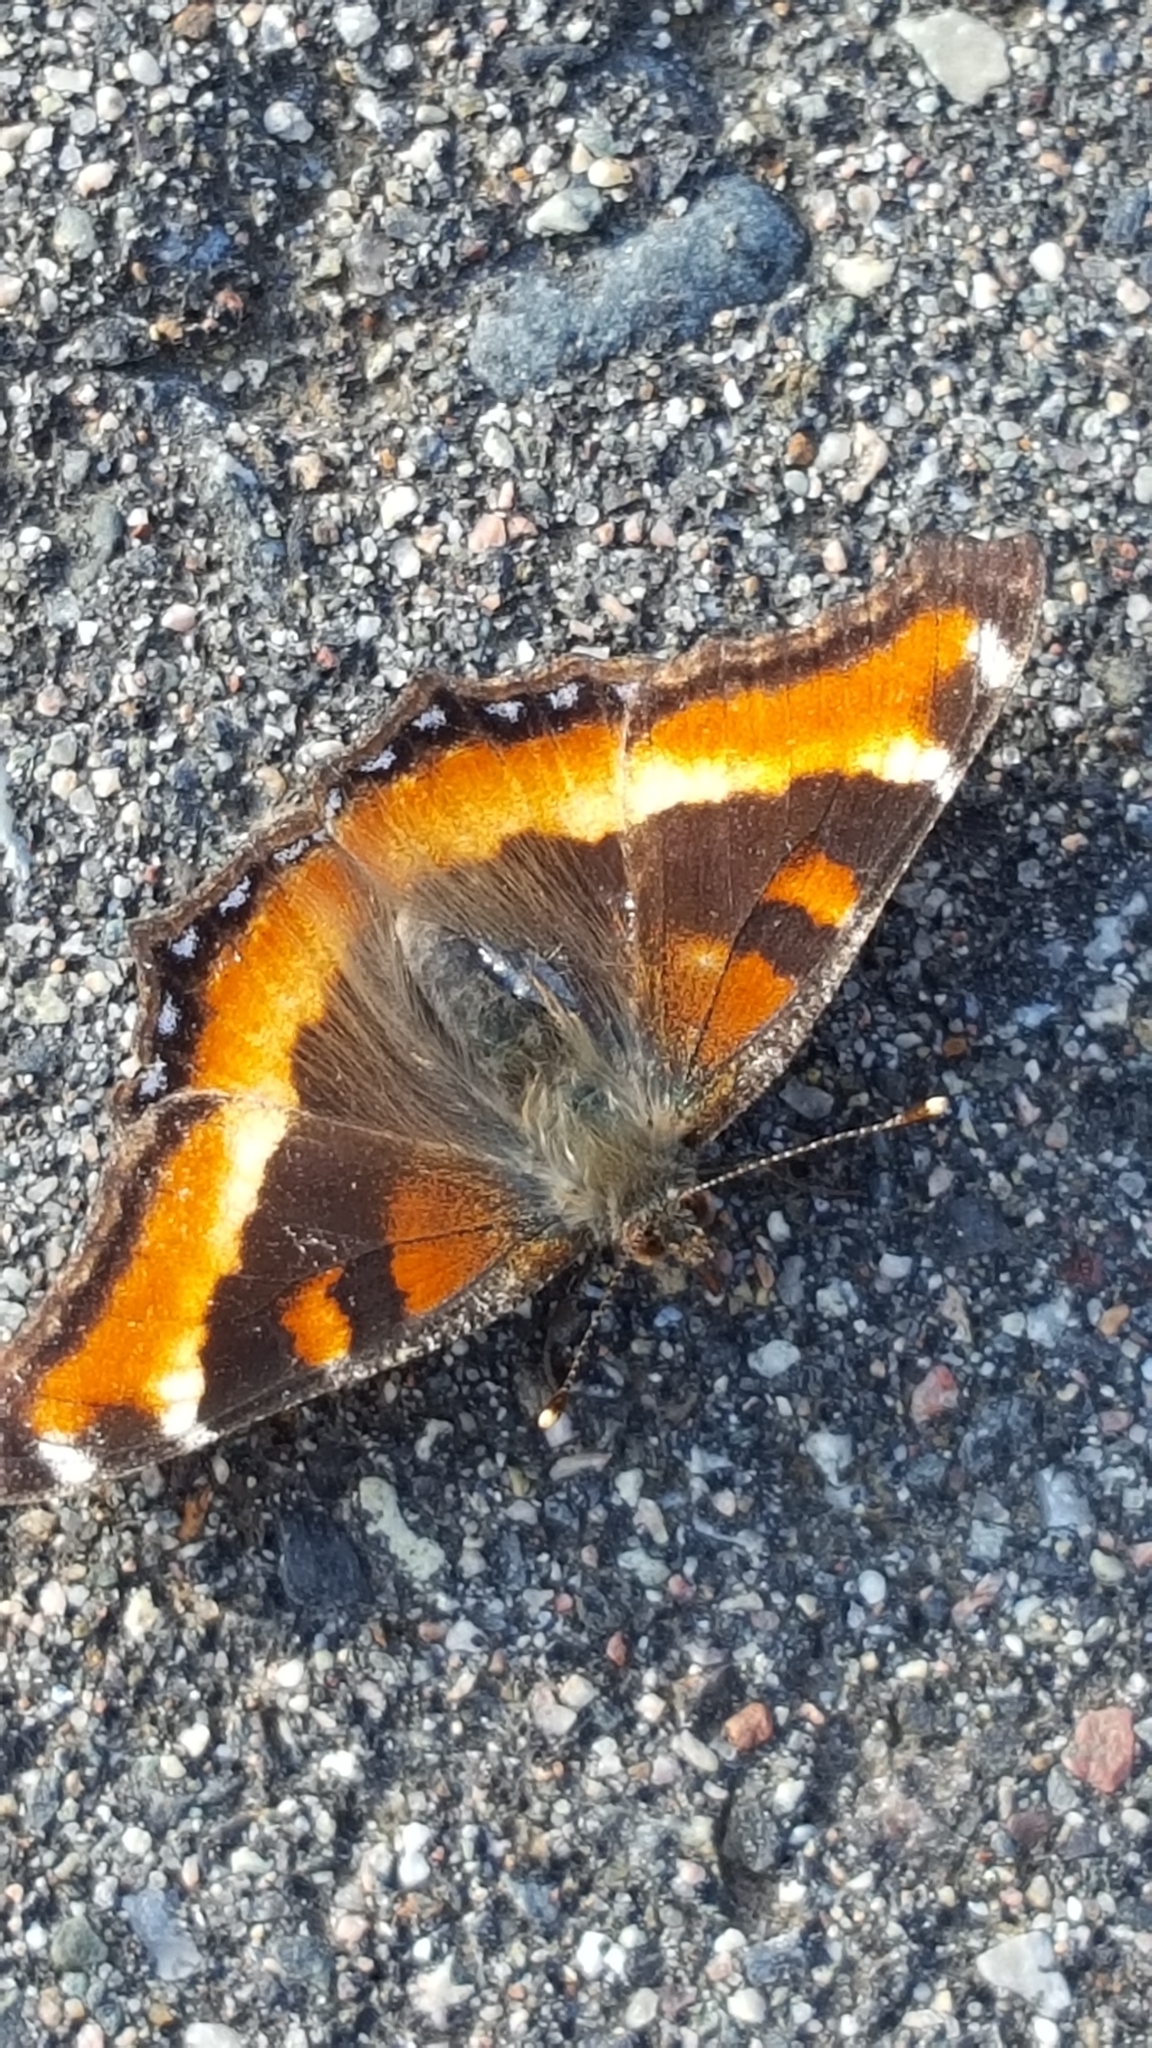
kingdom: Animalia
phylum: Arthropoda
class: Insecta
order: Lepidoptera
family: Nymphalidae
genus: Aglais
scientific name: Aglais milberti
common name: Milbert's tortoiseshell
